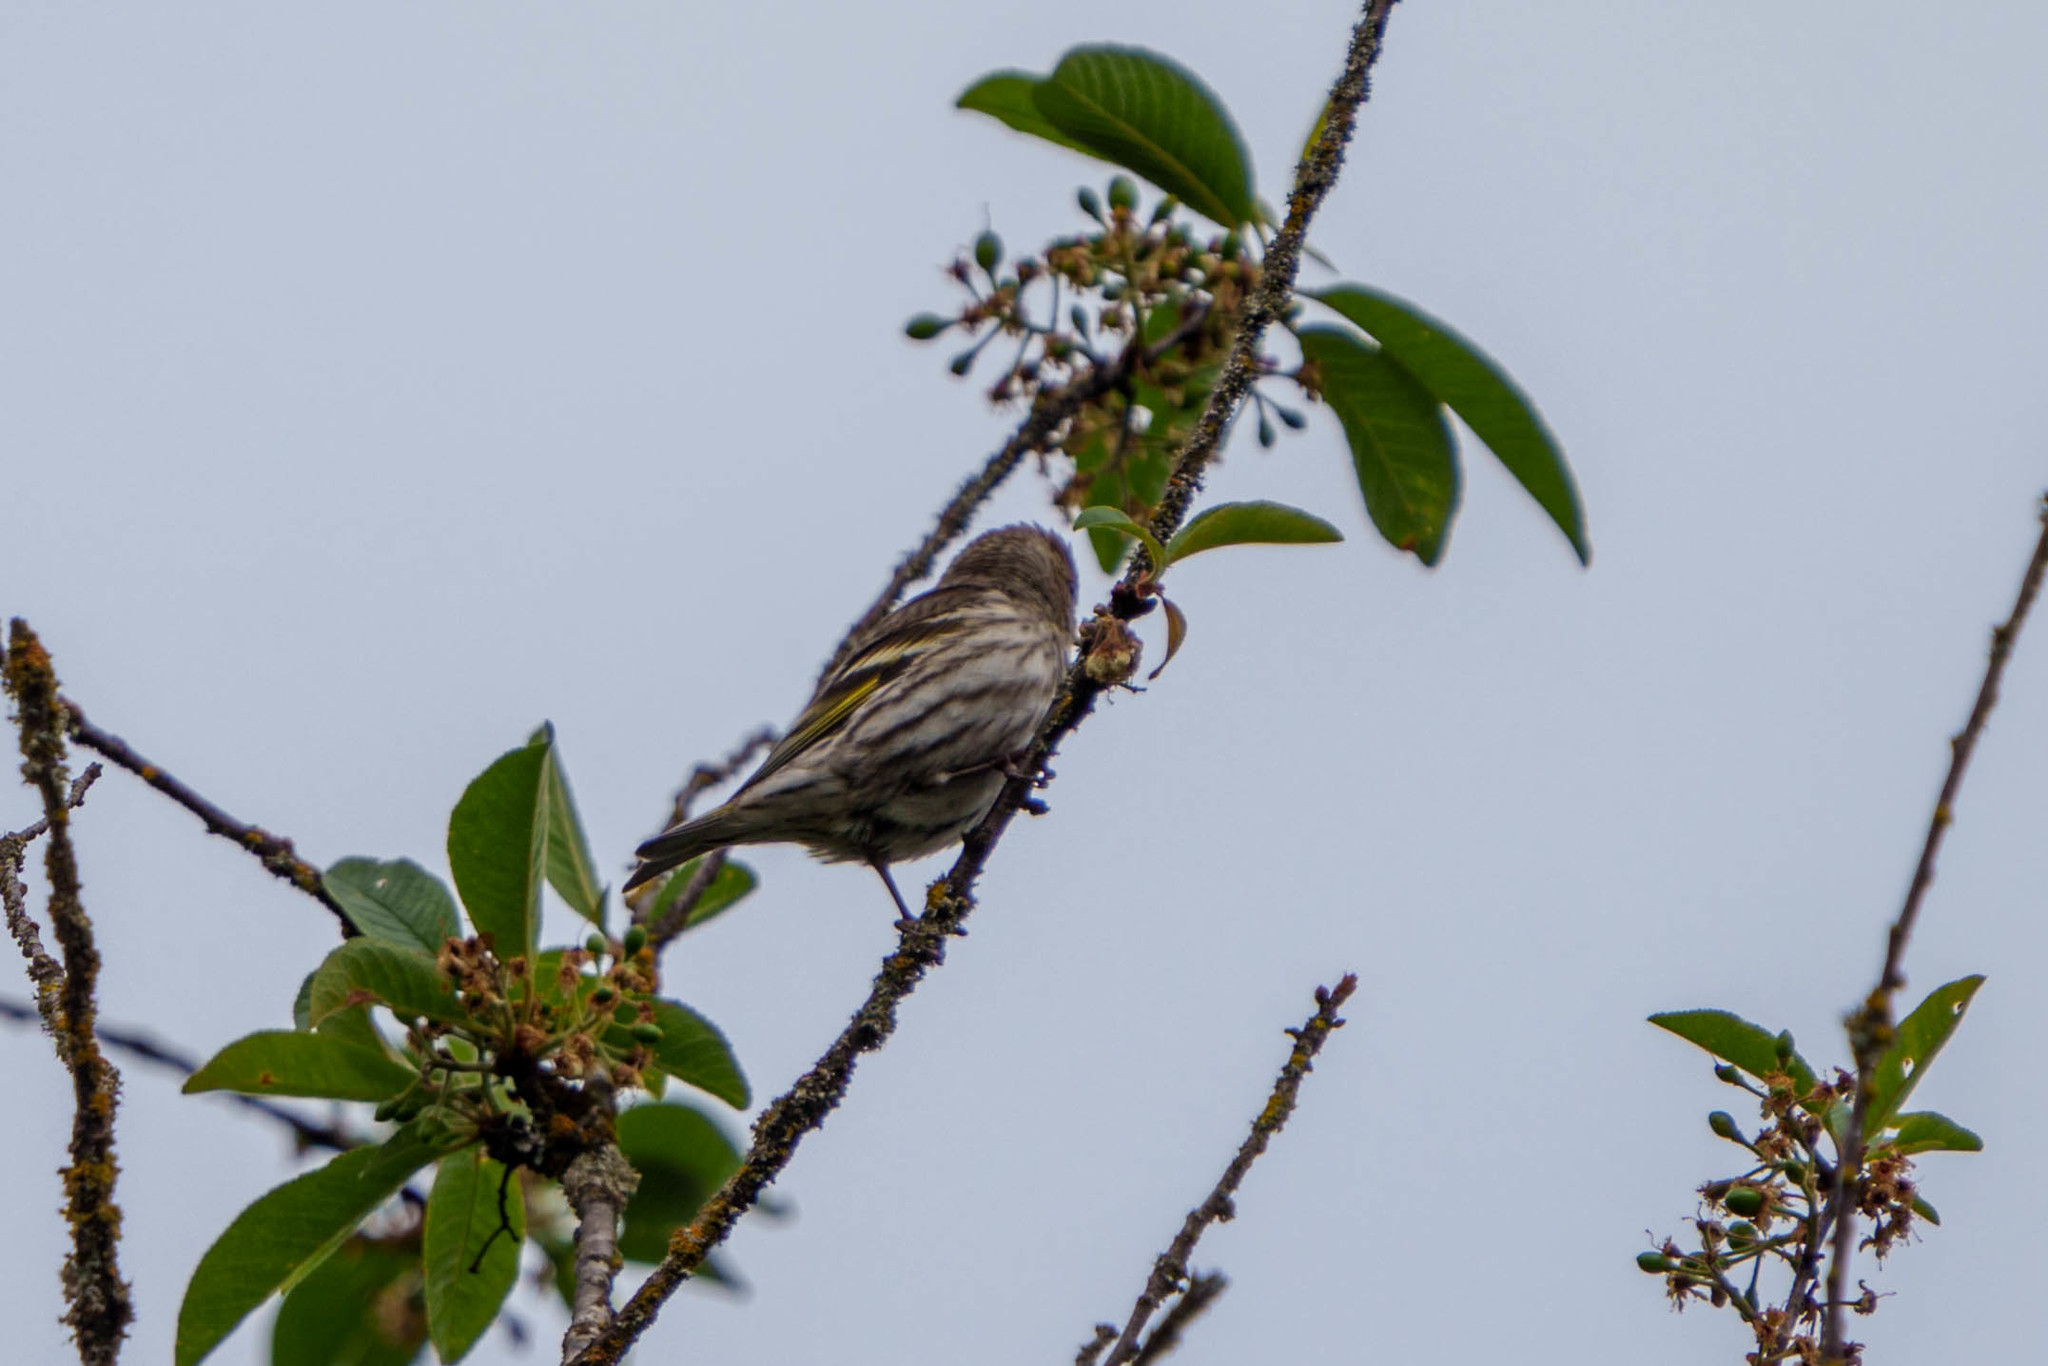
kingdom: Animalia
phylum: Chordata
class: Aves
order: Passeriformes
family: Fringillidae
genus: Spinus
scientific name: Spinus pinus
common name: Pine siskin
